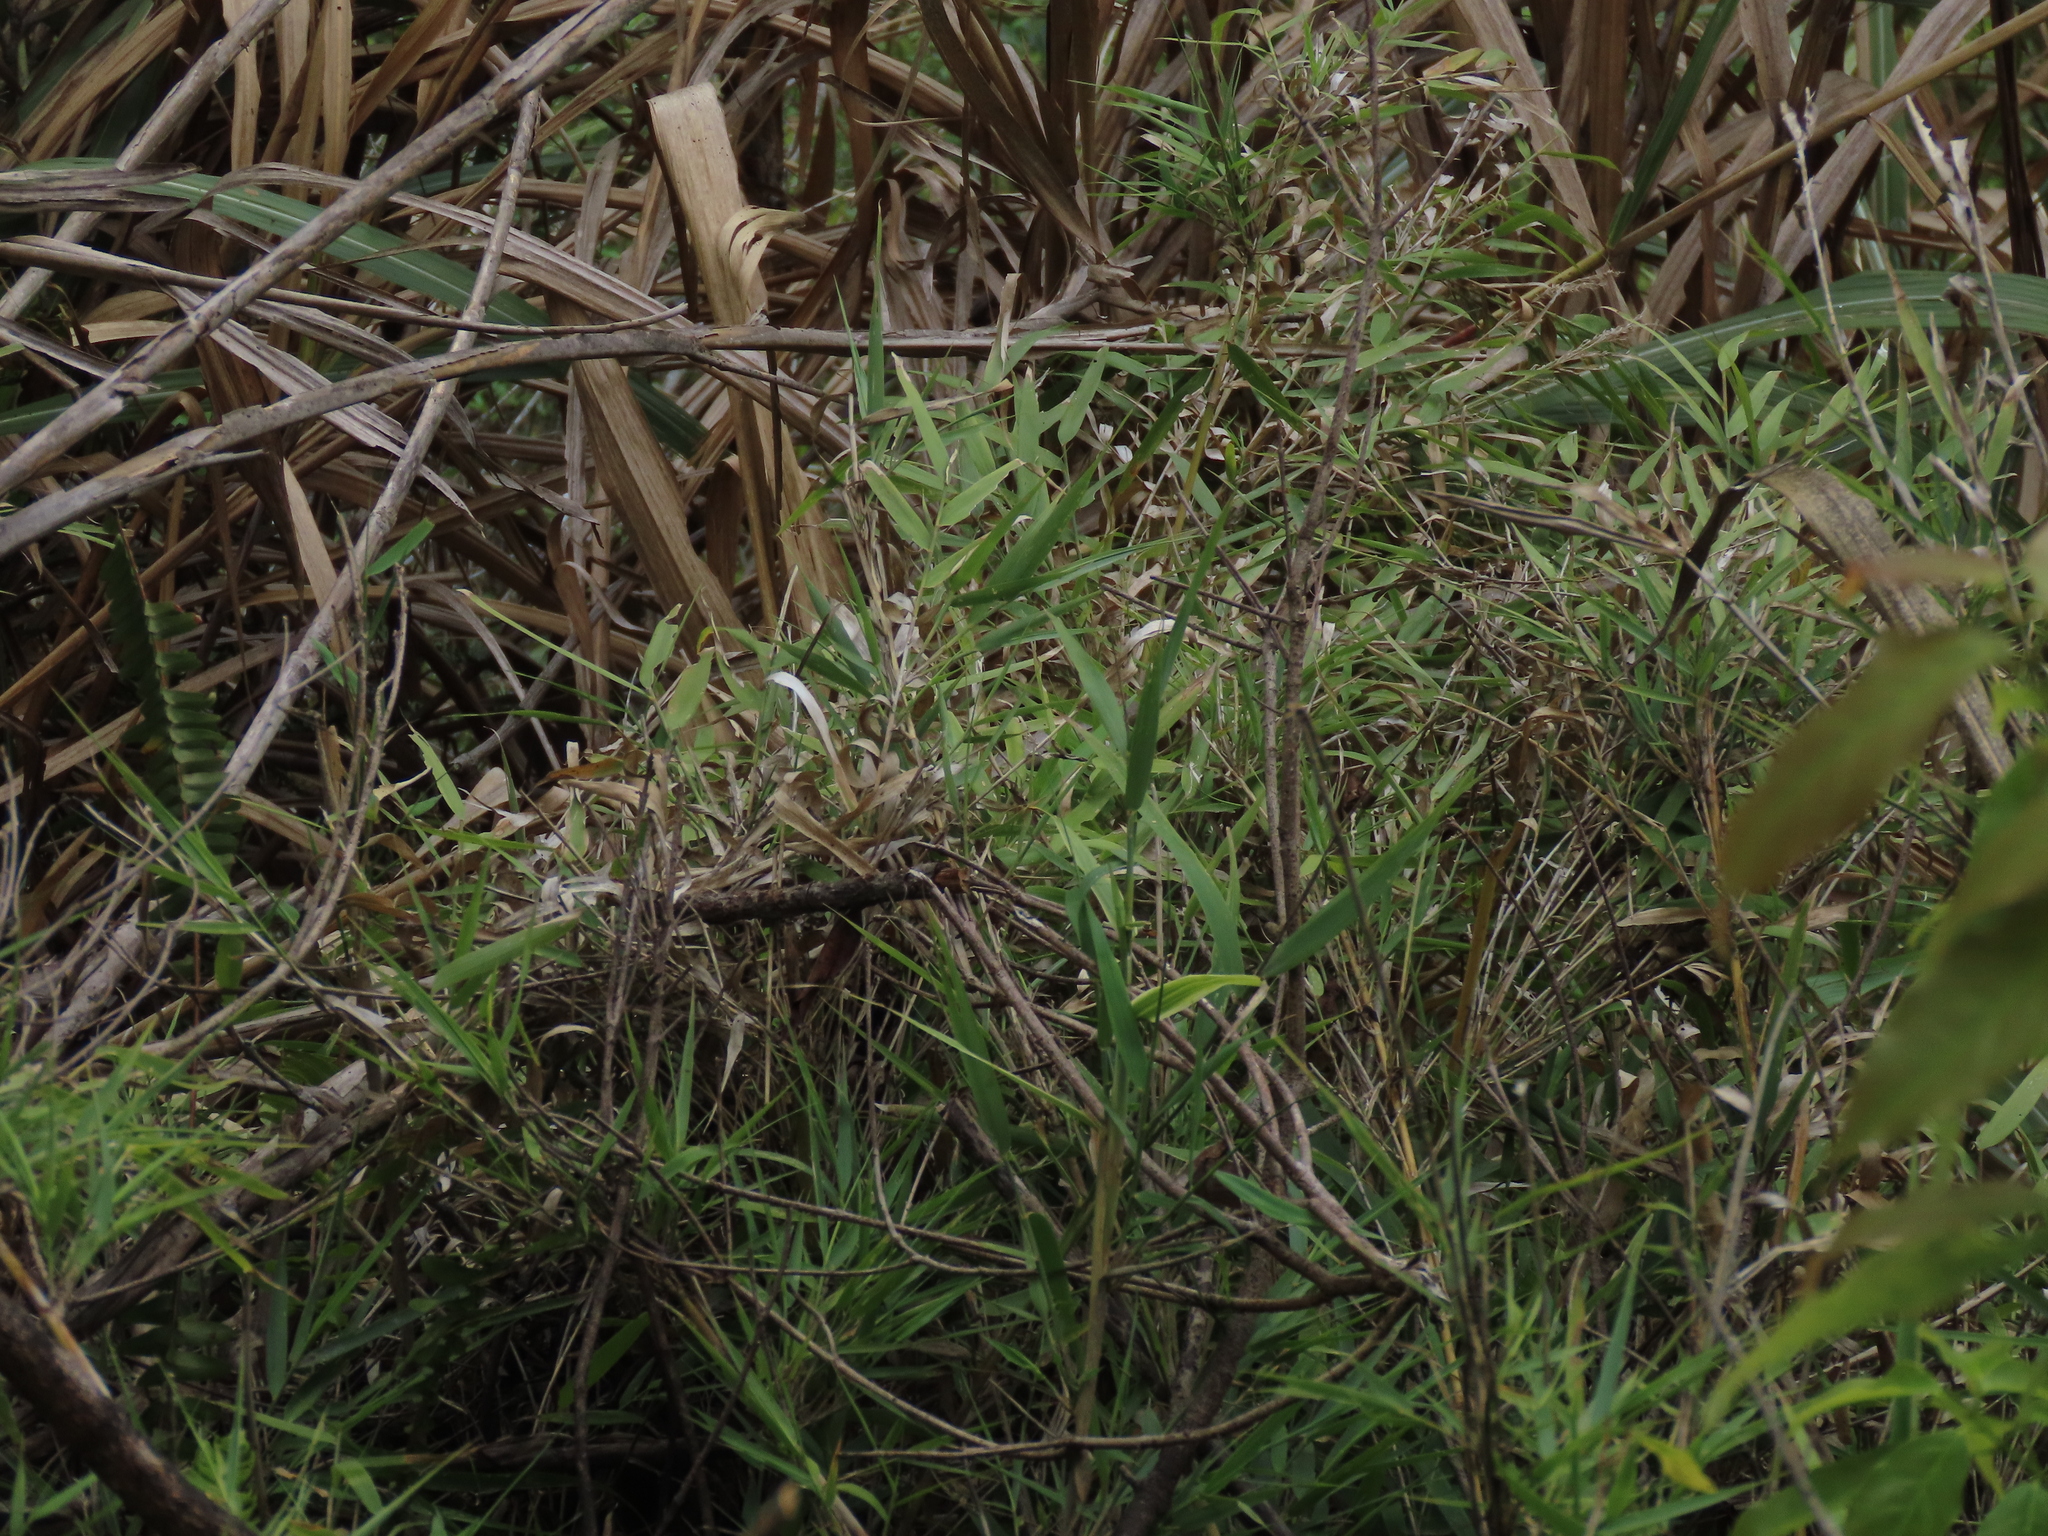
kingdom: Plantae
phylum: Tracheophyta
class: Liliopsida
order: Poales
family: Poaceae
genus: Arundo
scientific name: Arundo formosana
